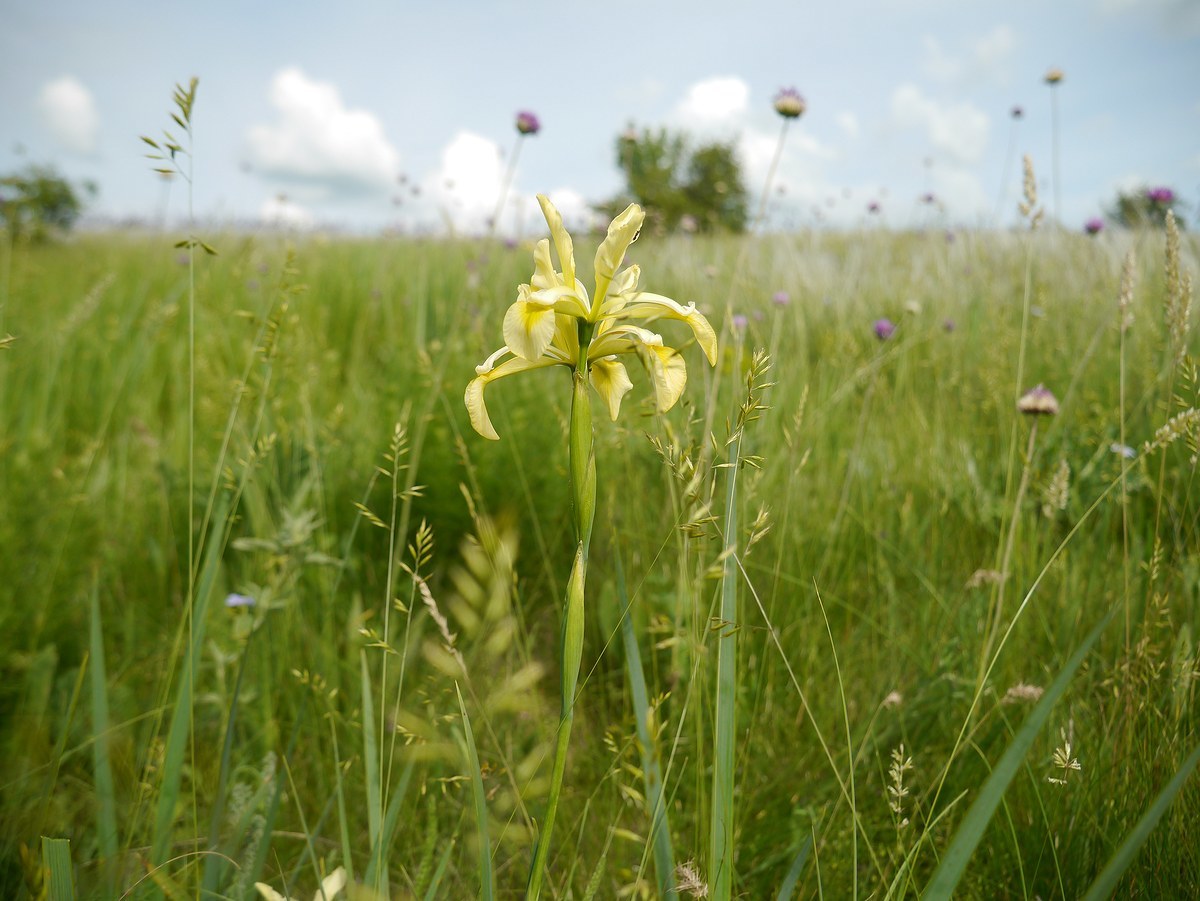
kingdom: Plantae
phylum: Tracheophyta
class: Liliopsida
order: Asparagales
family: Iridaceae
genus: Iris
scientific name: Iris halophila
